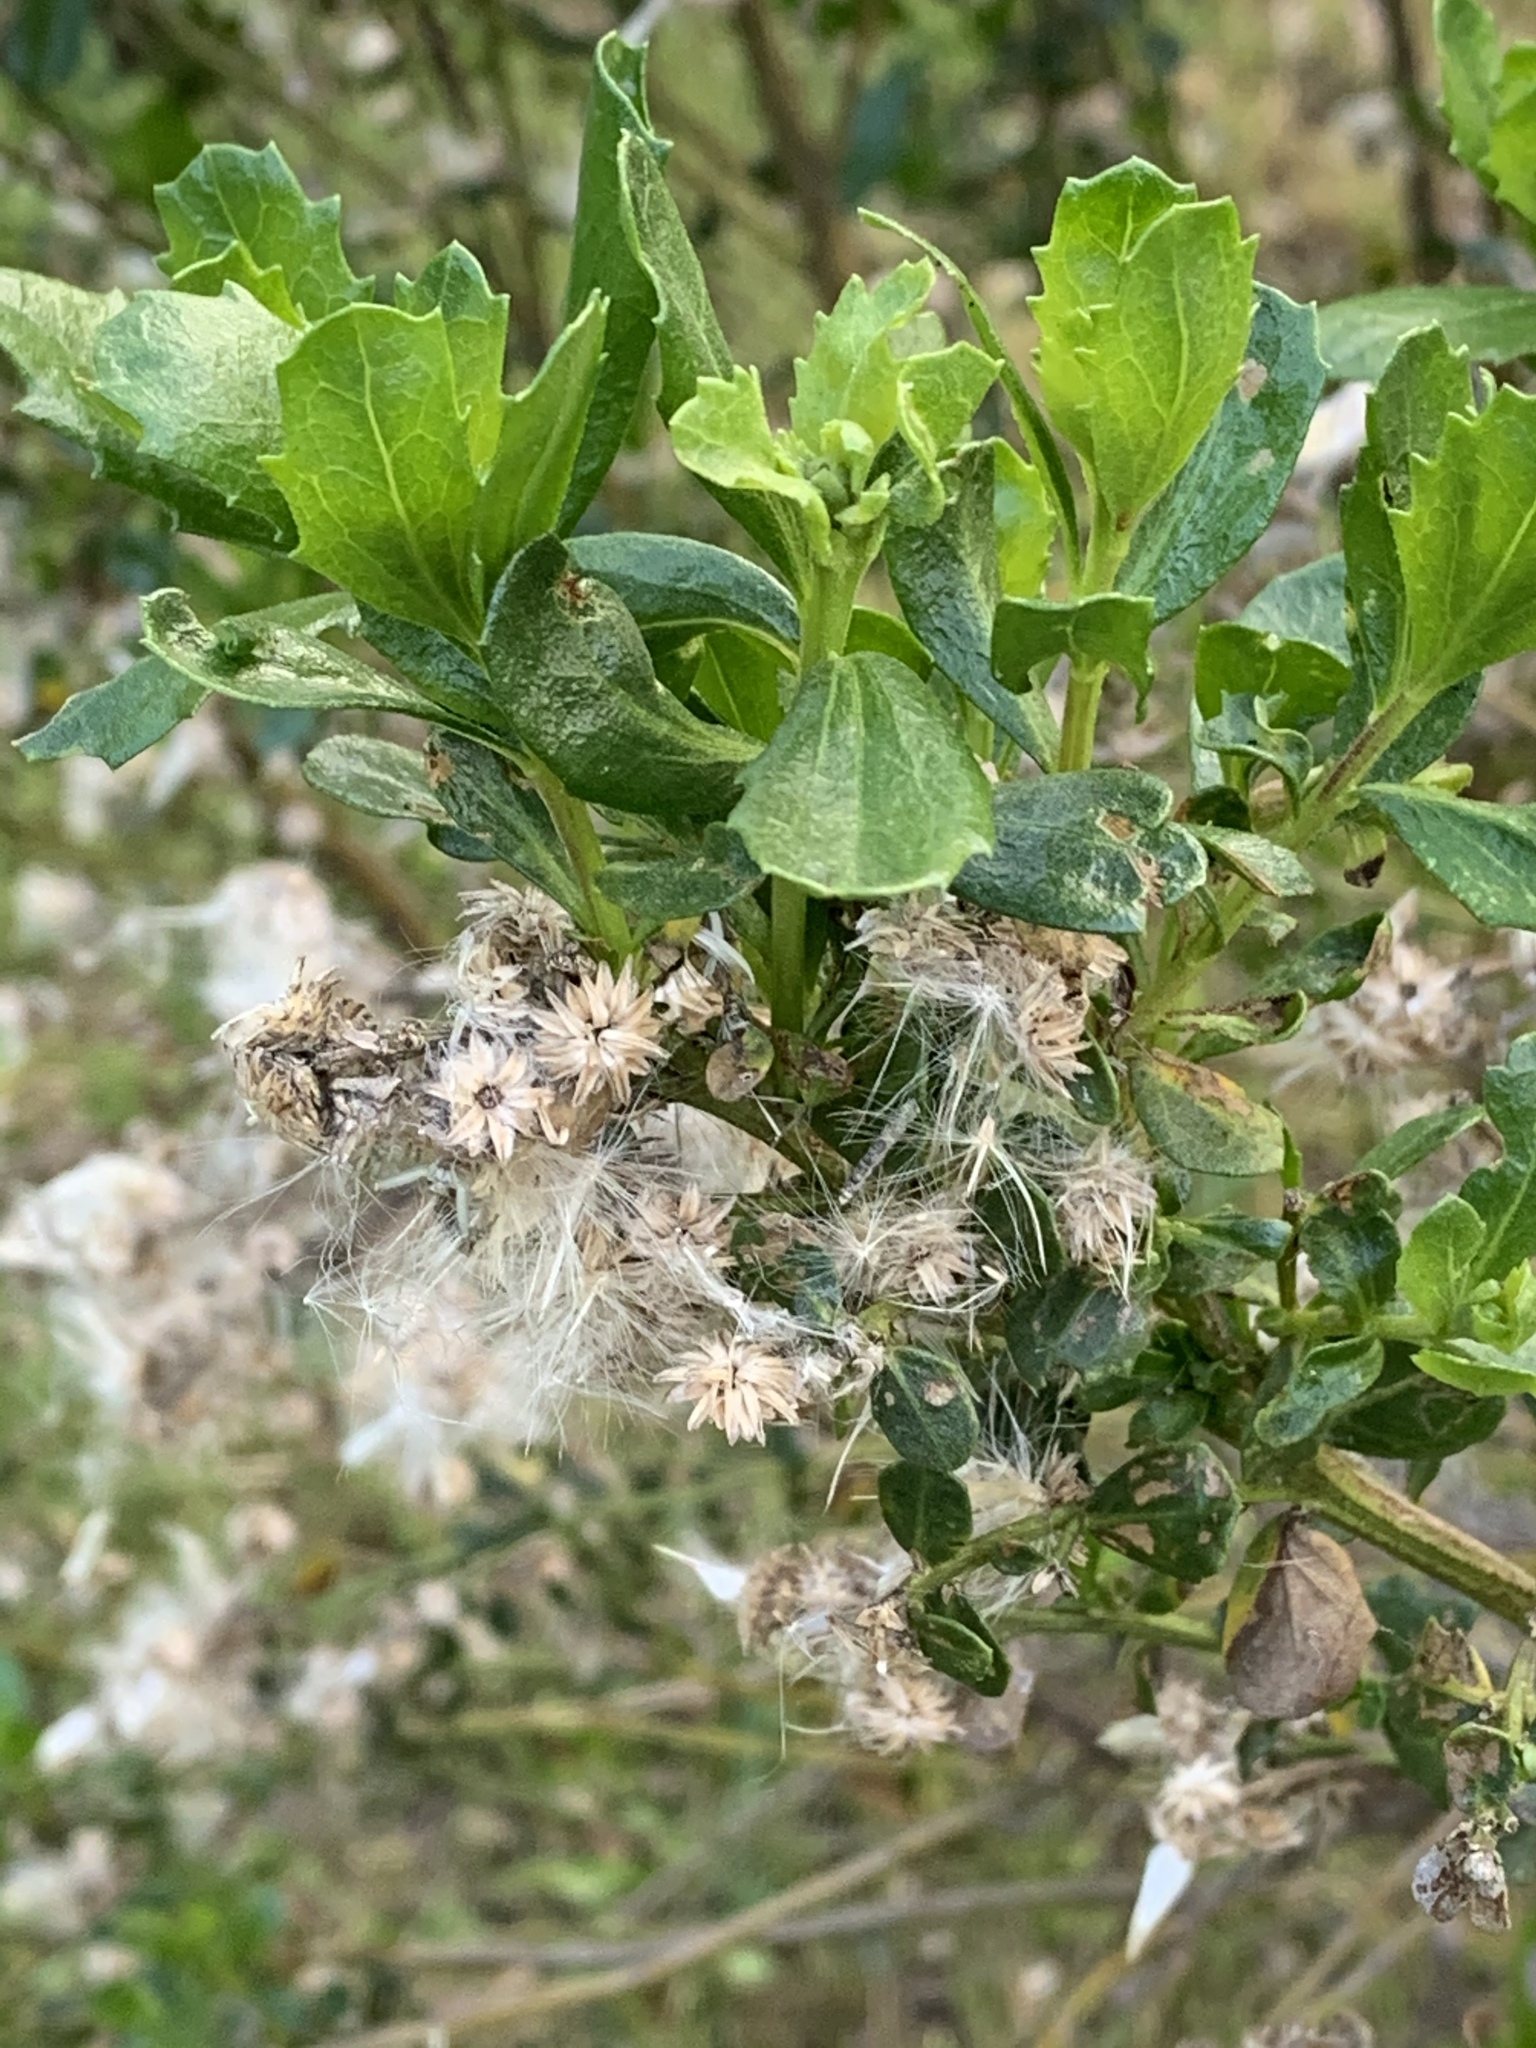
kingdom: Plantae
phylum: Tracheophyta
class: Magnoliopsida
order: Asterales
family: Asteraceae
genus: Baccharis
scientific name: Baccharis pilularis
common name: Coyotebrush
